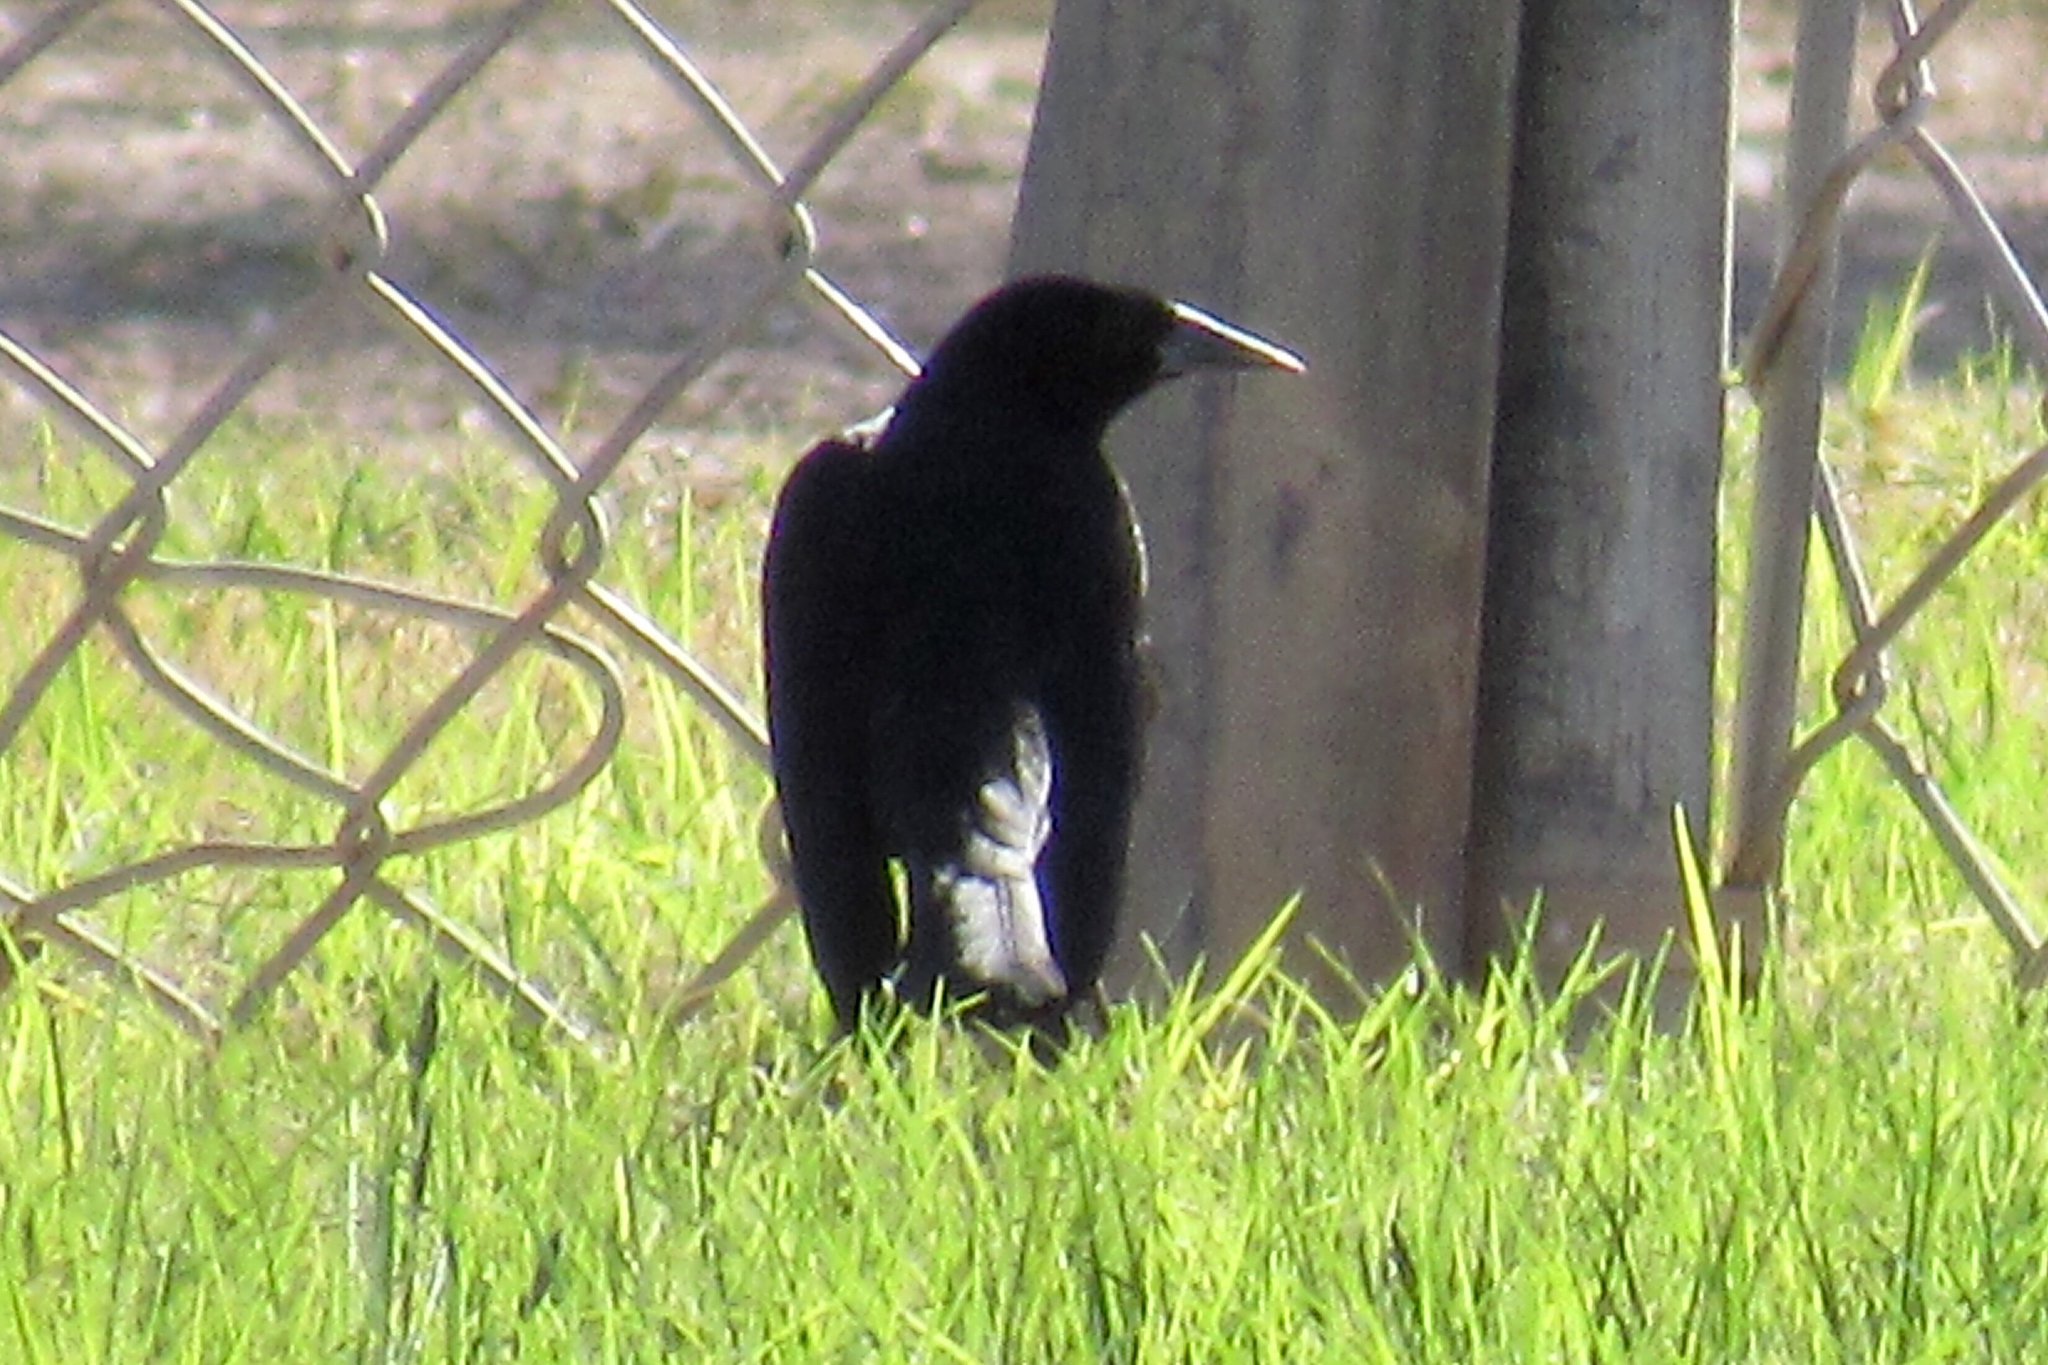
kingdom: Animalia
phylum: Chordata
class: Aves
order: Passeriformes
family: Icteridae
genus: Agelaius
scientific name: Agelaius phoeniceus
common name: Red-winged blackbird
